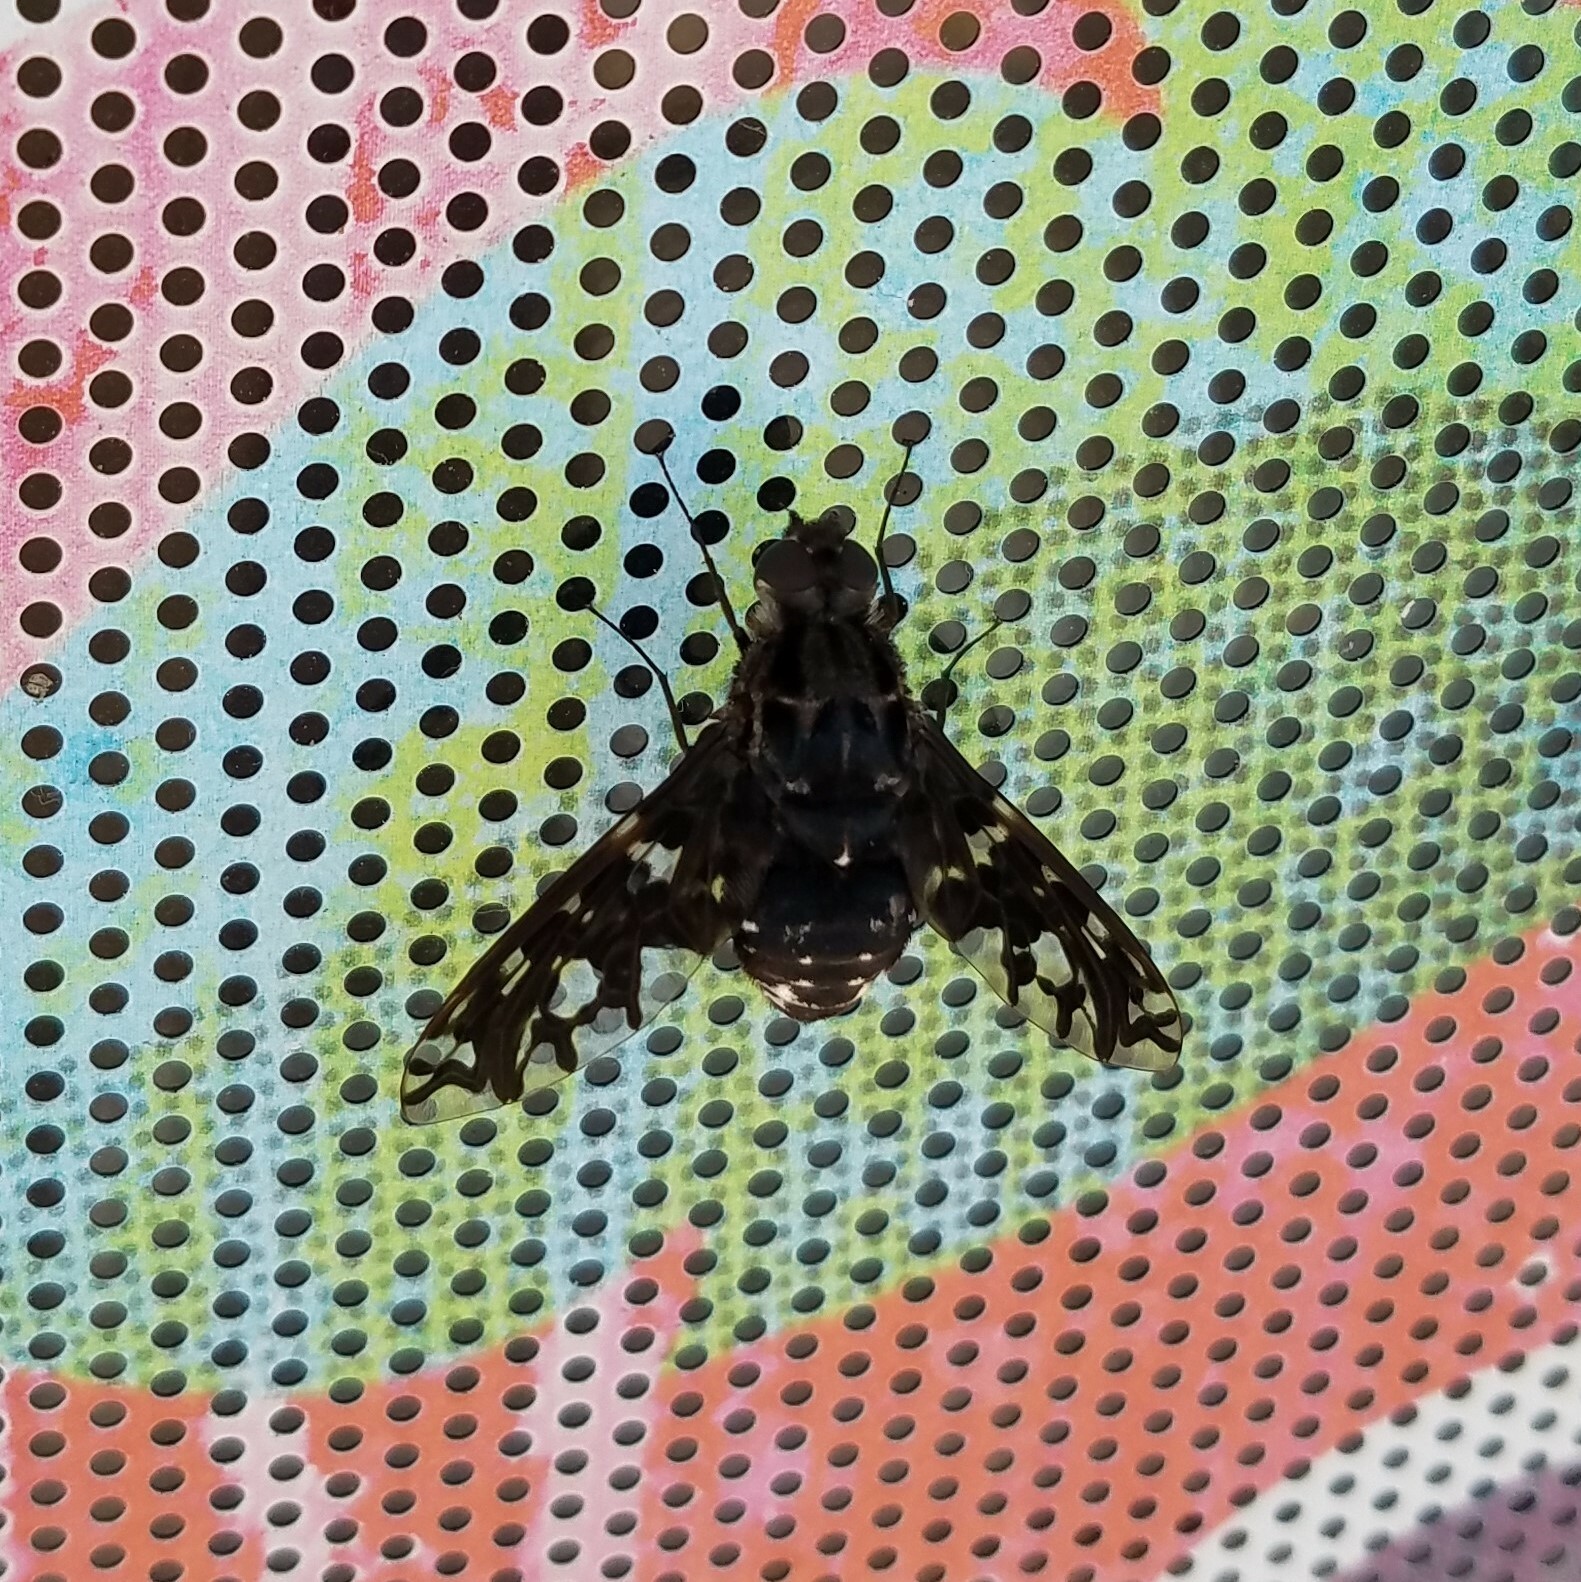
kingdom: Animalia
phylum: Arthropoda
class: Insecta
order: Diptera
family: Bombyliidae
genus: Xenox
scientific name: Xenox tigrinus
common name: Tiger bee fly
